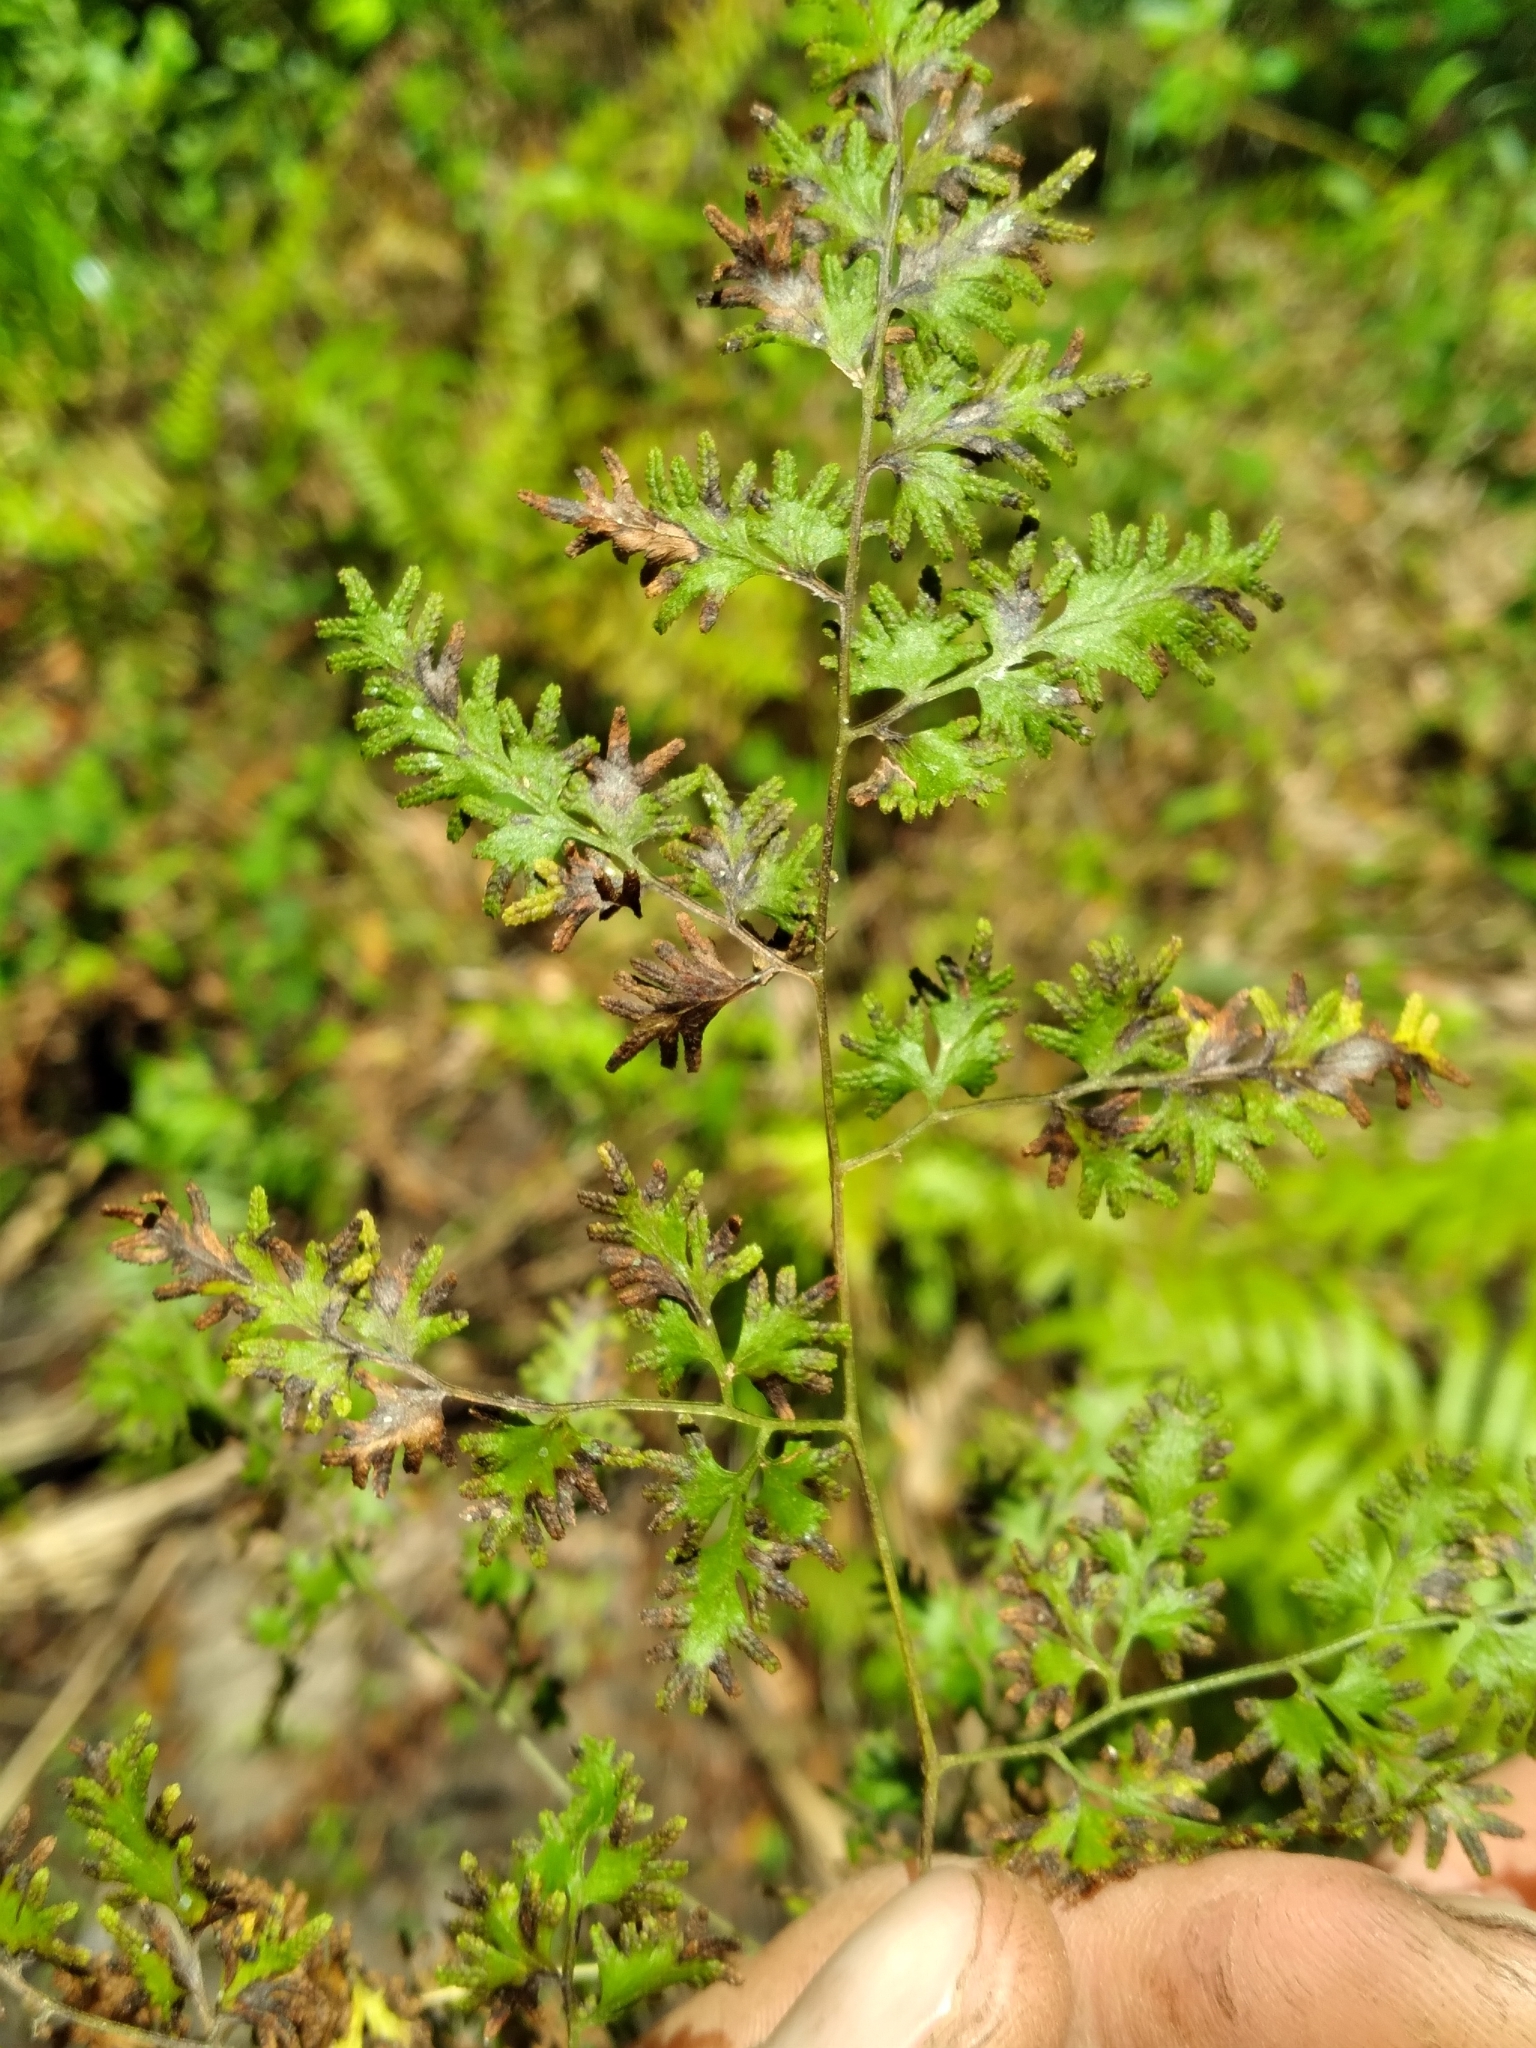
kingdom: Plantae
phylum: Tracheophyta
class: Polypodiopsida
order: Schizaeales
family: Lygodiaceae
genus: Lygodium
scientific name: Lygodium japonicum
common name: Japanese climbing fern
